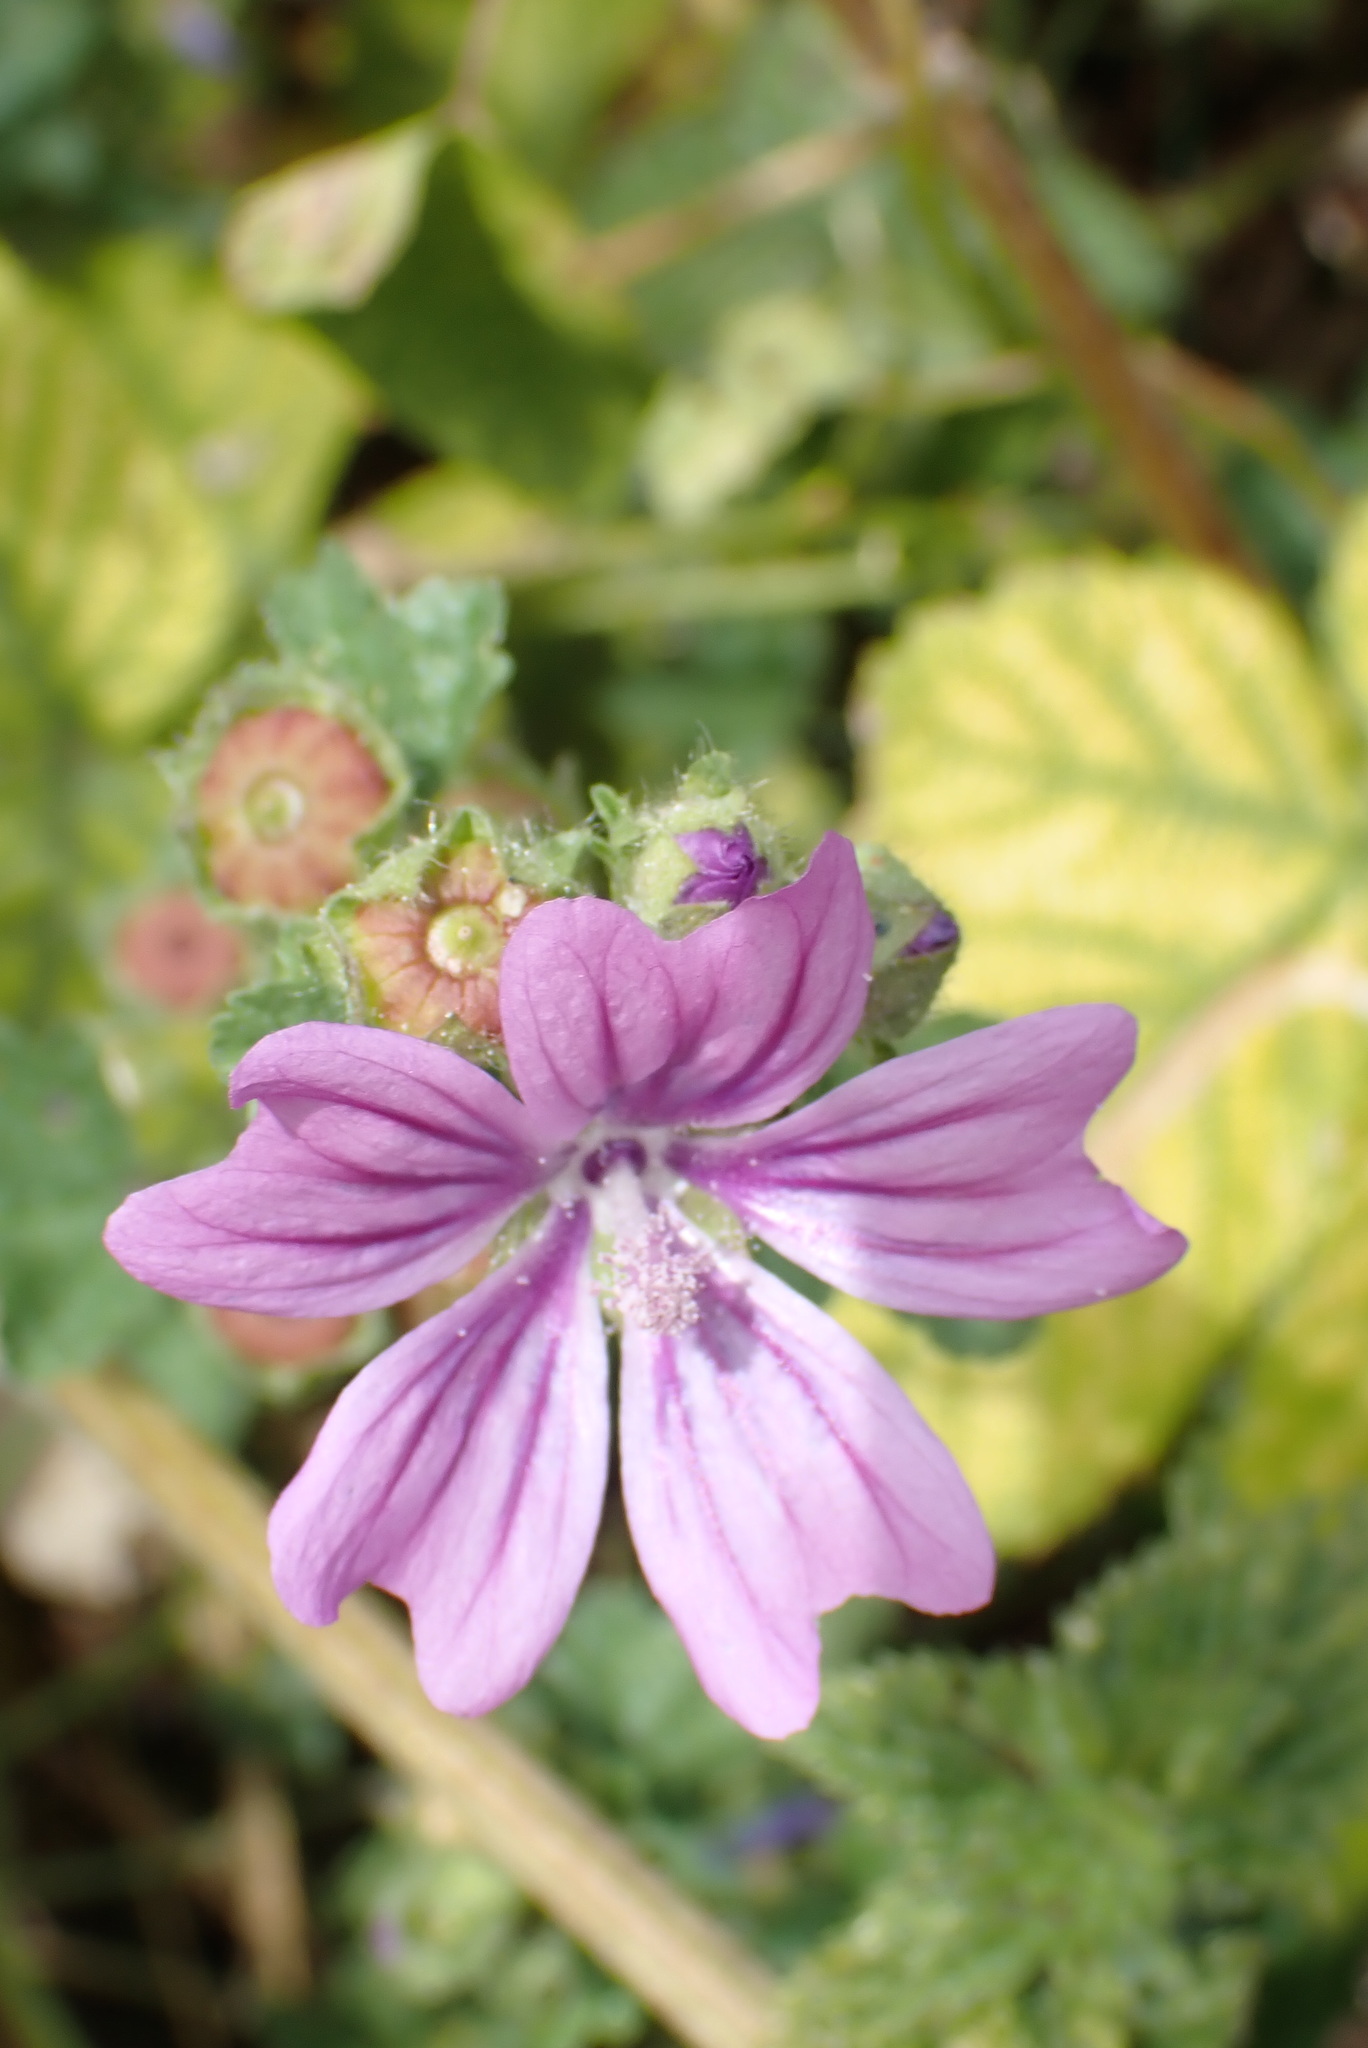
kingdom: Plantae
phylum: Tracheophyta
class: Magnoliopsida
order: Malvales
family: Malvaceae
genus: Malva
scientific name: Malva sylvestris
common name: Common mallow
